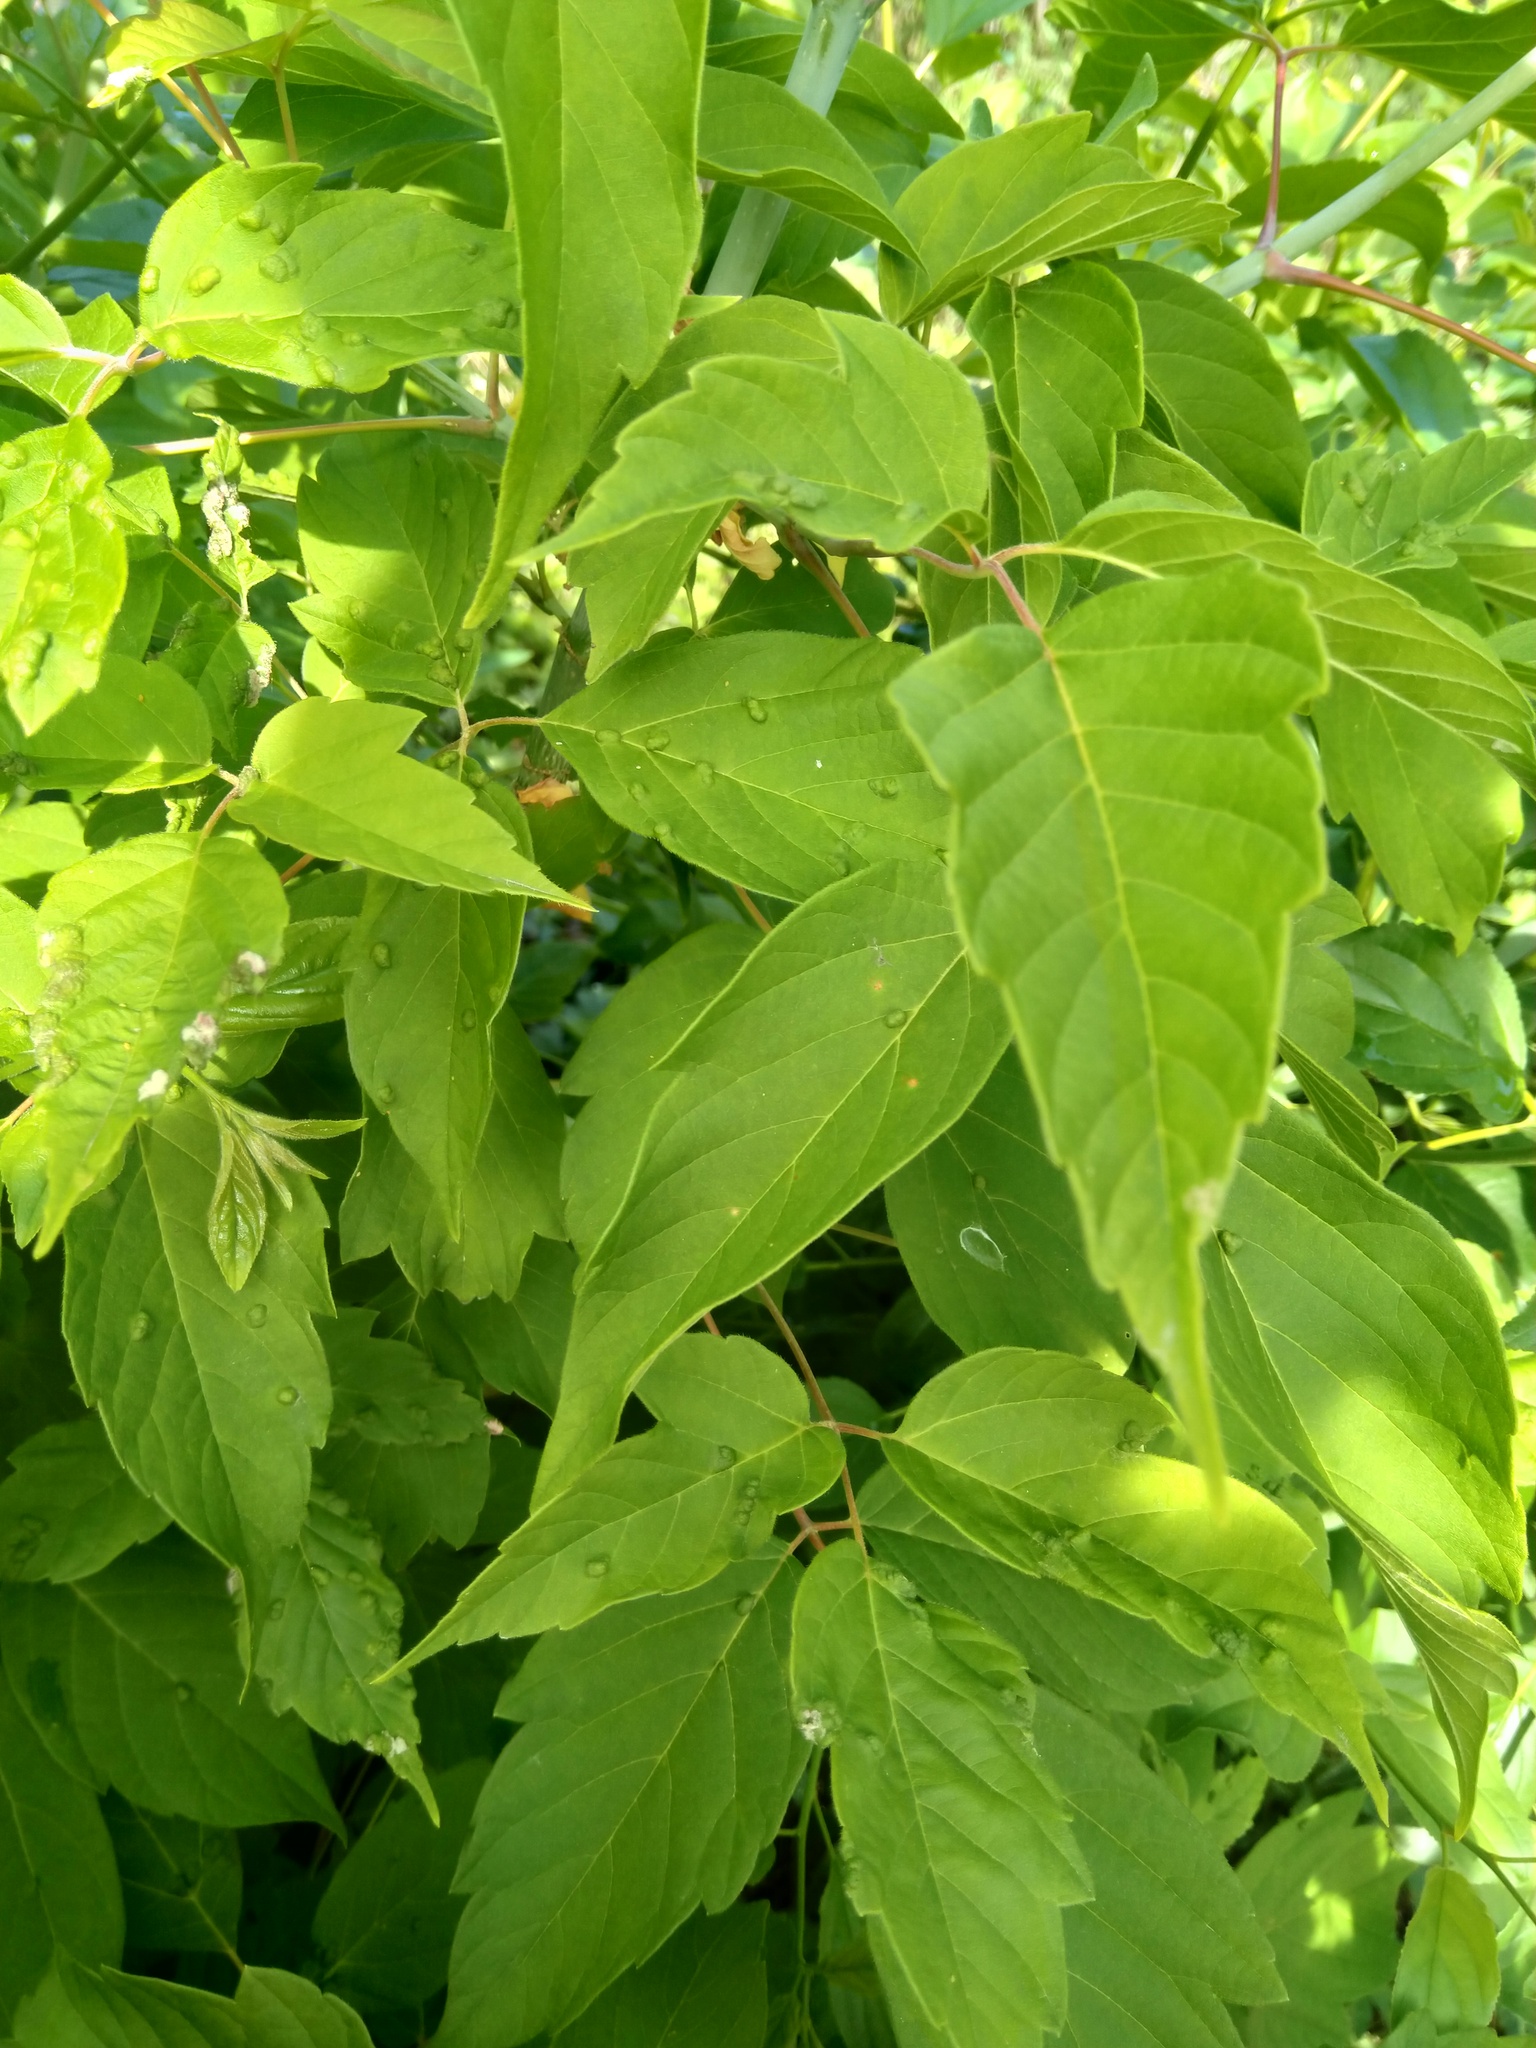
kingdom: Plantae
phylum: Tracheophyta
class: Magnoliopsida
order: Sapindales
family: Sapindaceae
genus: Acer
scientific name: Acer negundo
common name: Ashleaf maple
